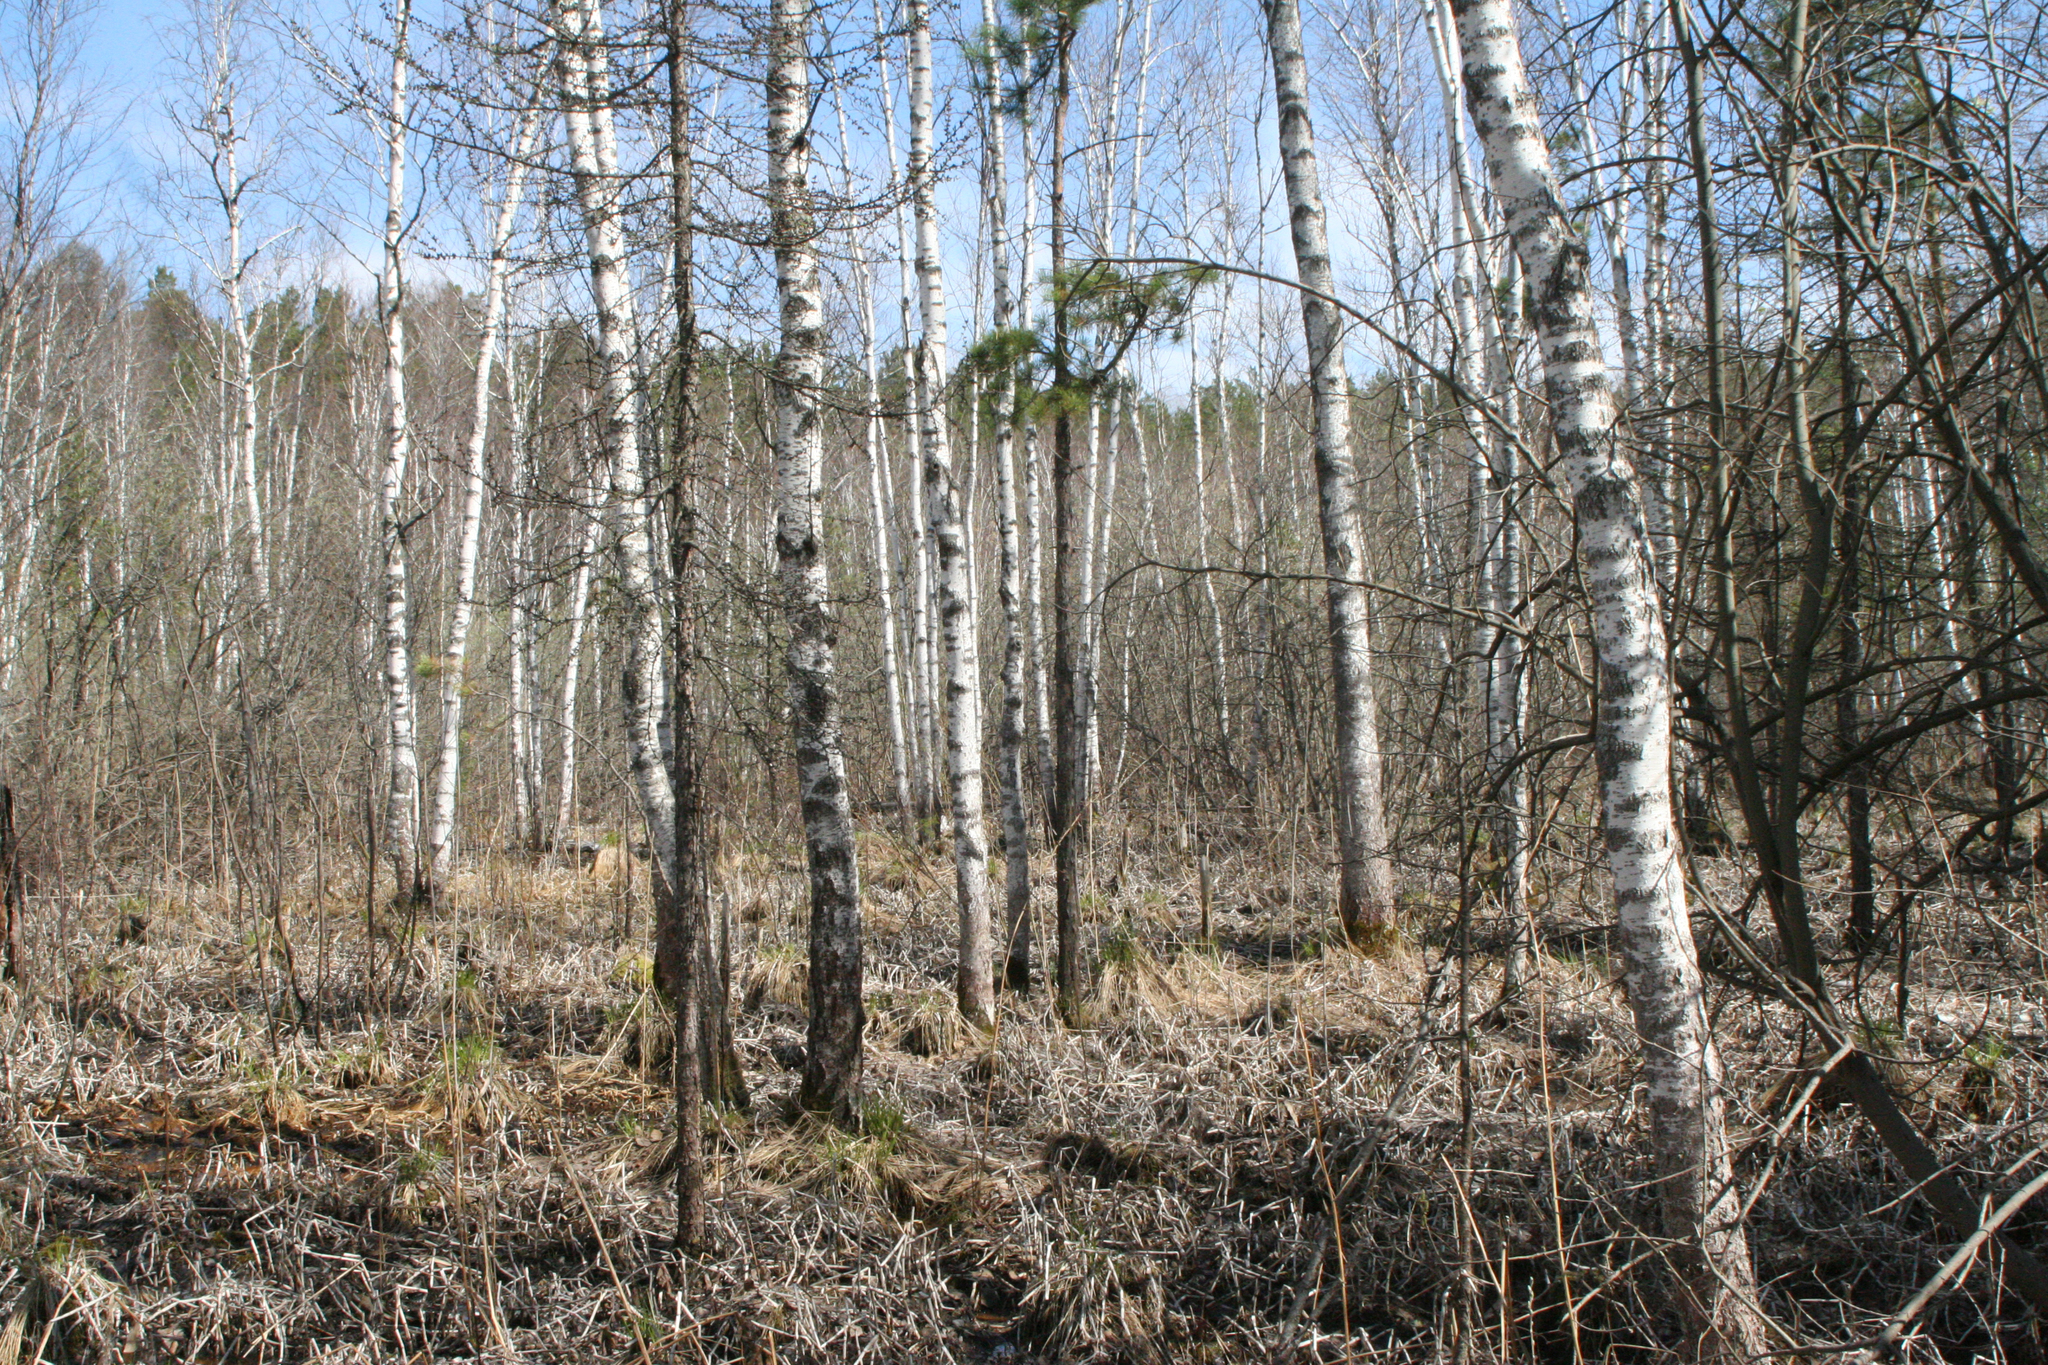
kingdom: Plantae
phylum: Tracheophyta
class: Pinopsida
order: Pinales
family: Pinaceae
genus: Pinus
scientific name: Pinus sylvestris
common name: Scots pine
